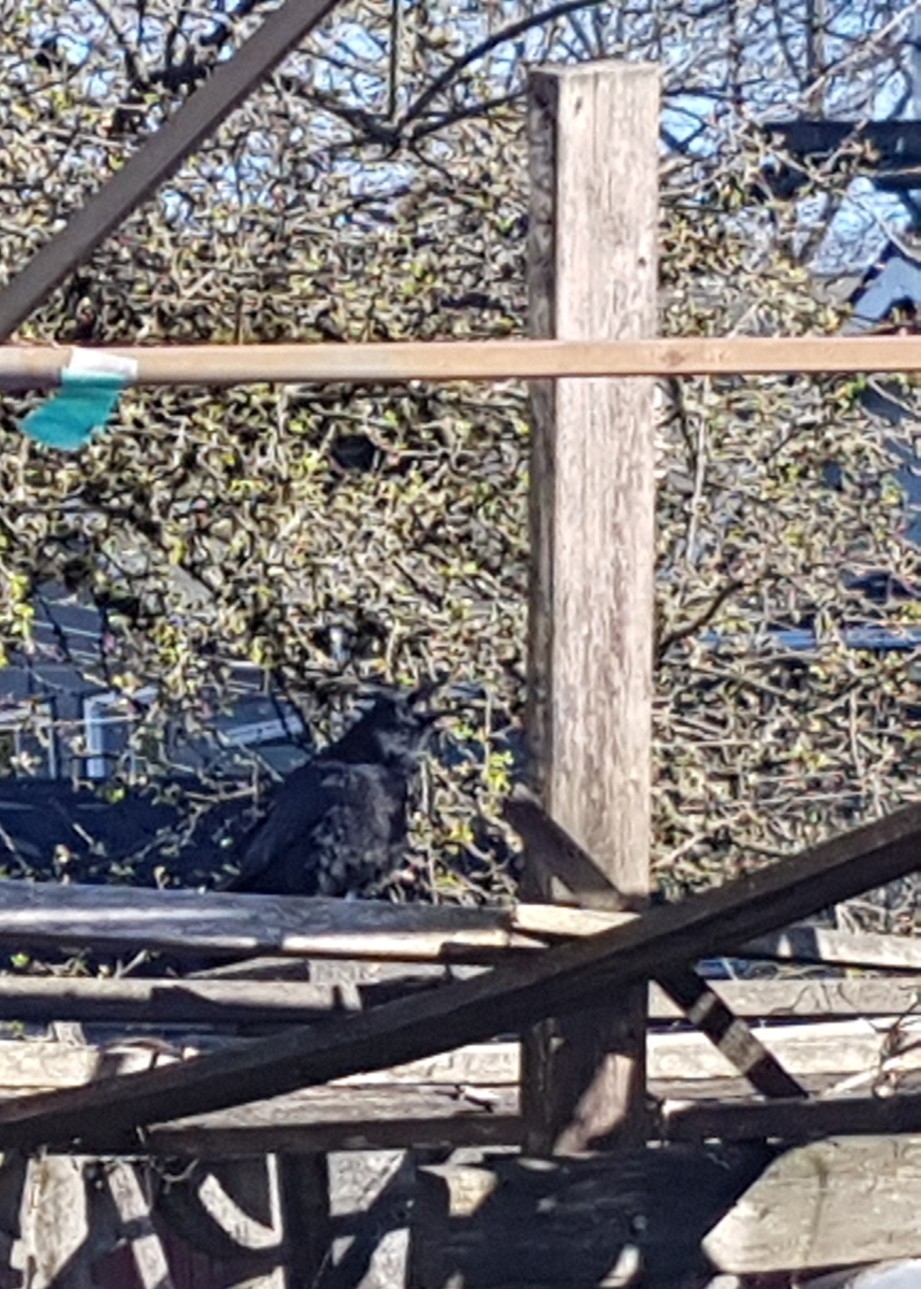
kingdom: Animalia
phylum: Chordata
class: Aves
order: Passeriformes
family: Corvidae
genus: Corvus
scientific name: Corvus brachyrhynchos
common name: American crow
